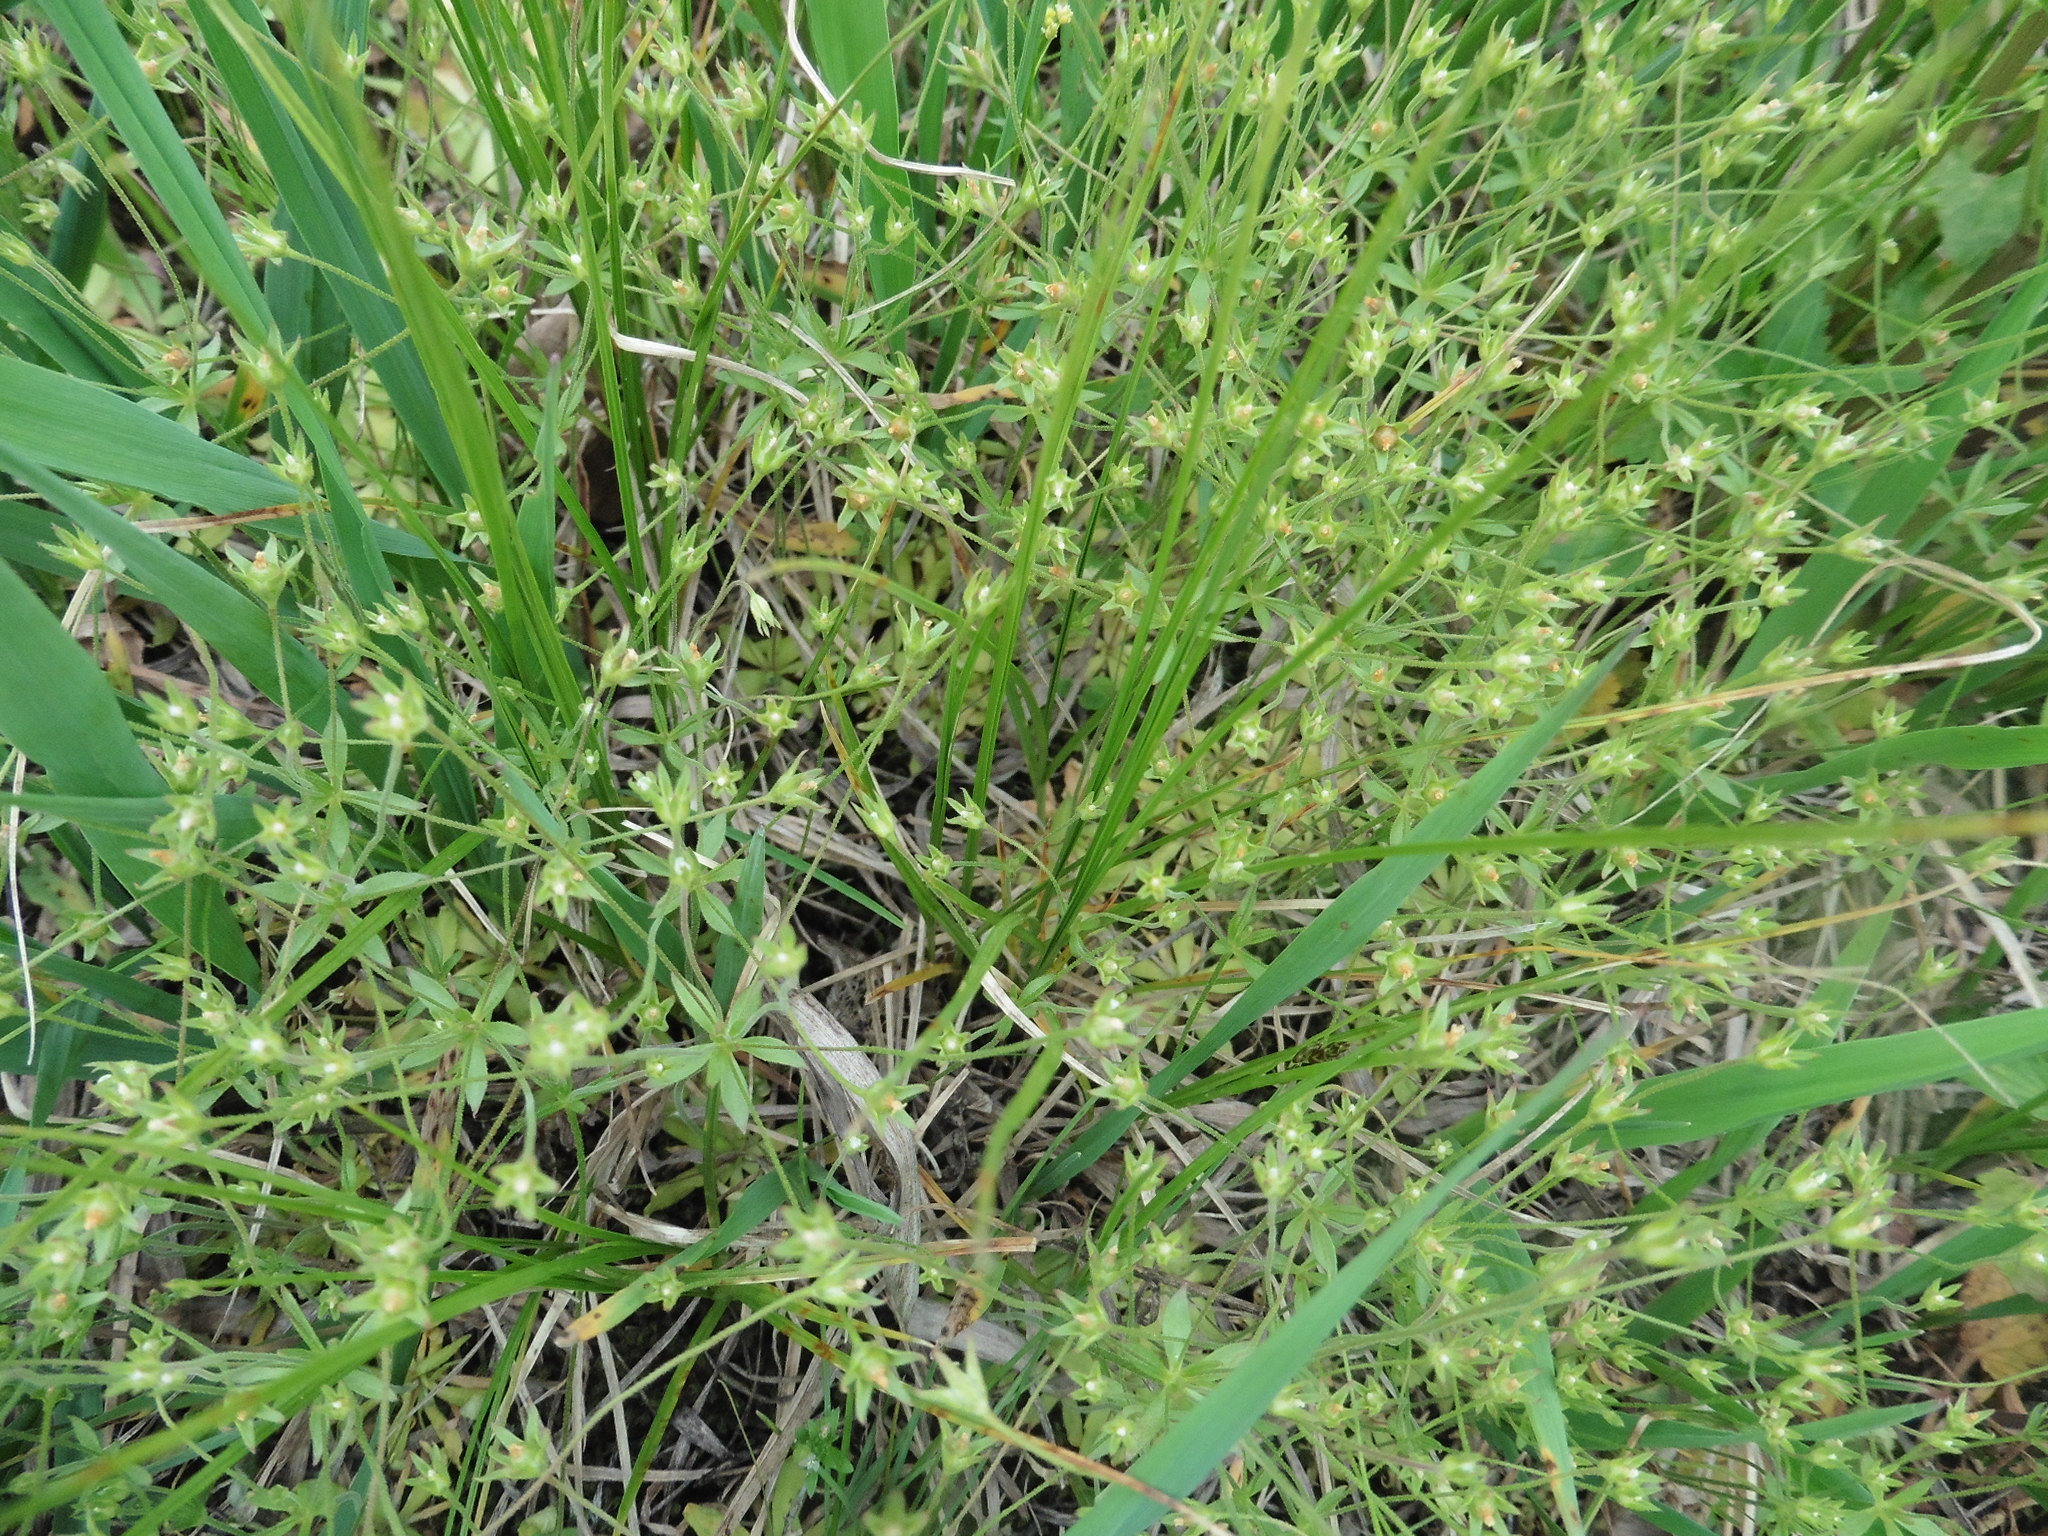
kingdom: Plantae
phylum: Tracheophyta
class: Magnoliopsida
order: Ericales
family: Primulaceae
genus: Androsace
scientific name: Androsace elongata
